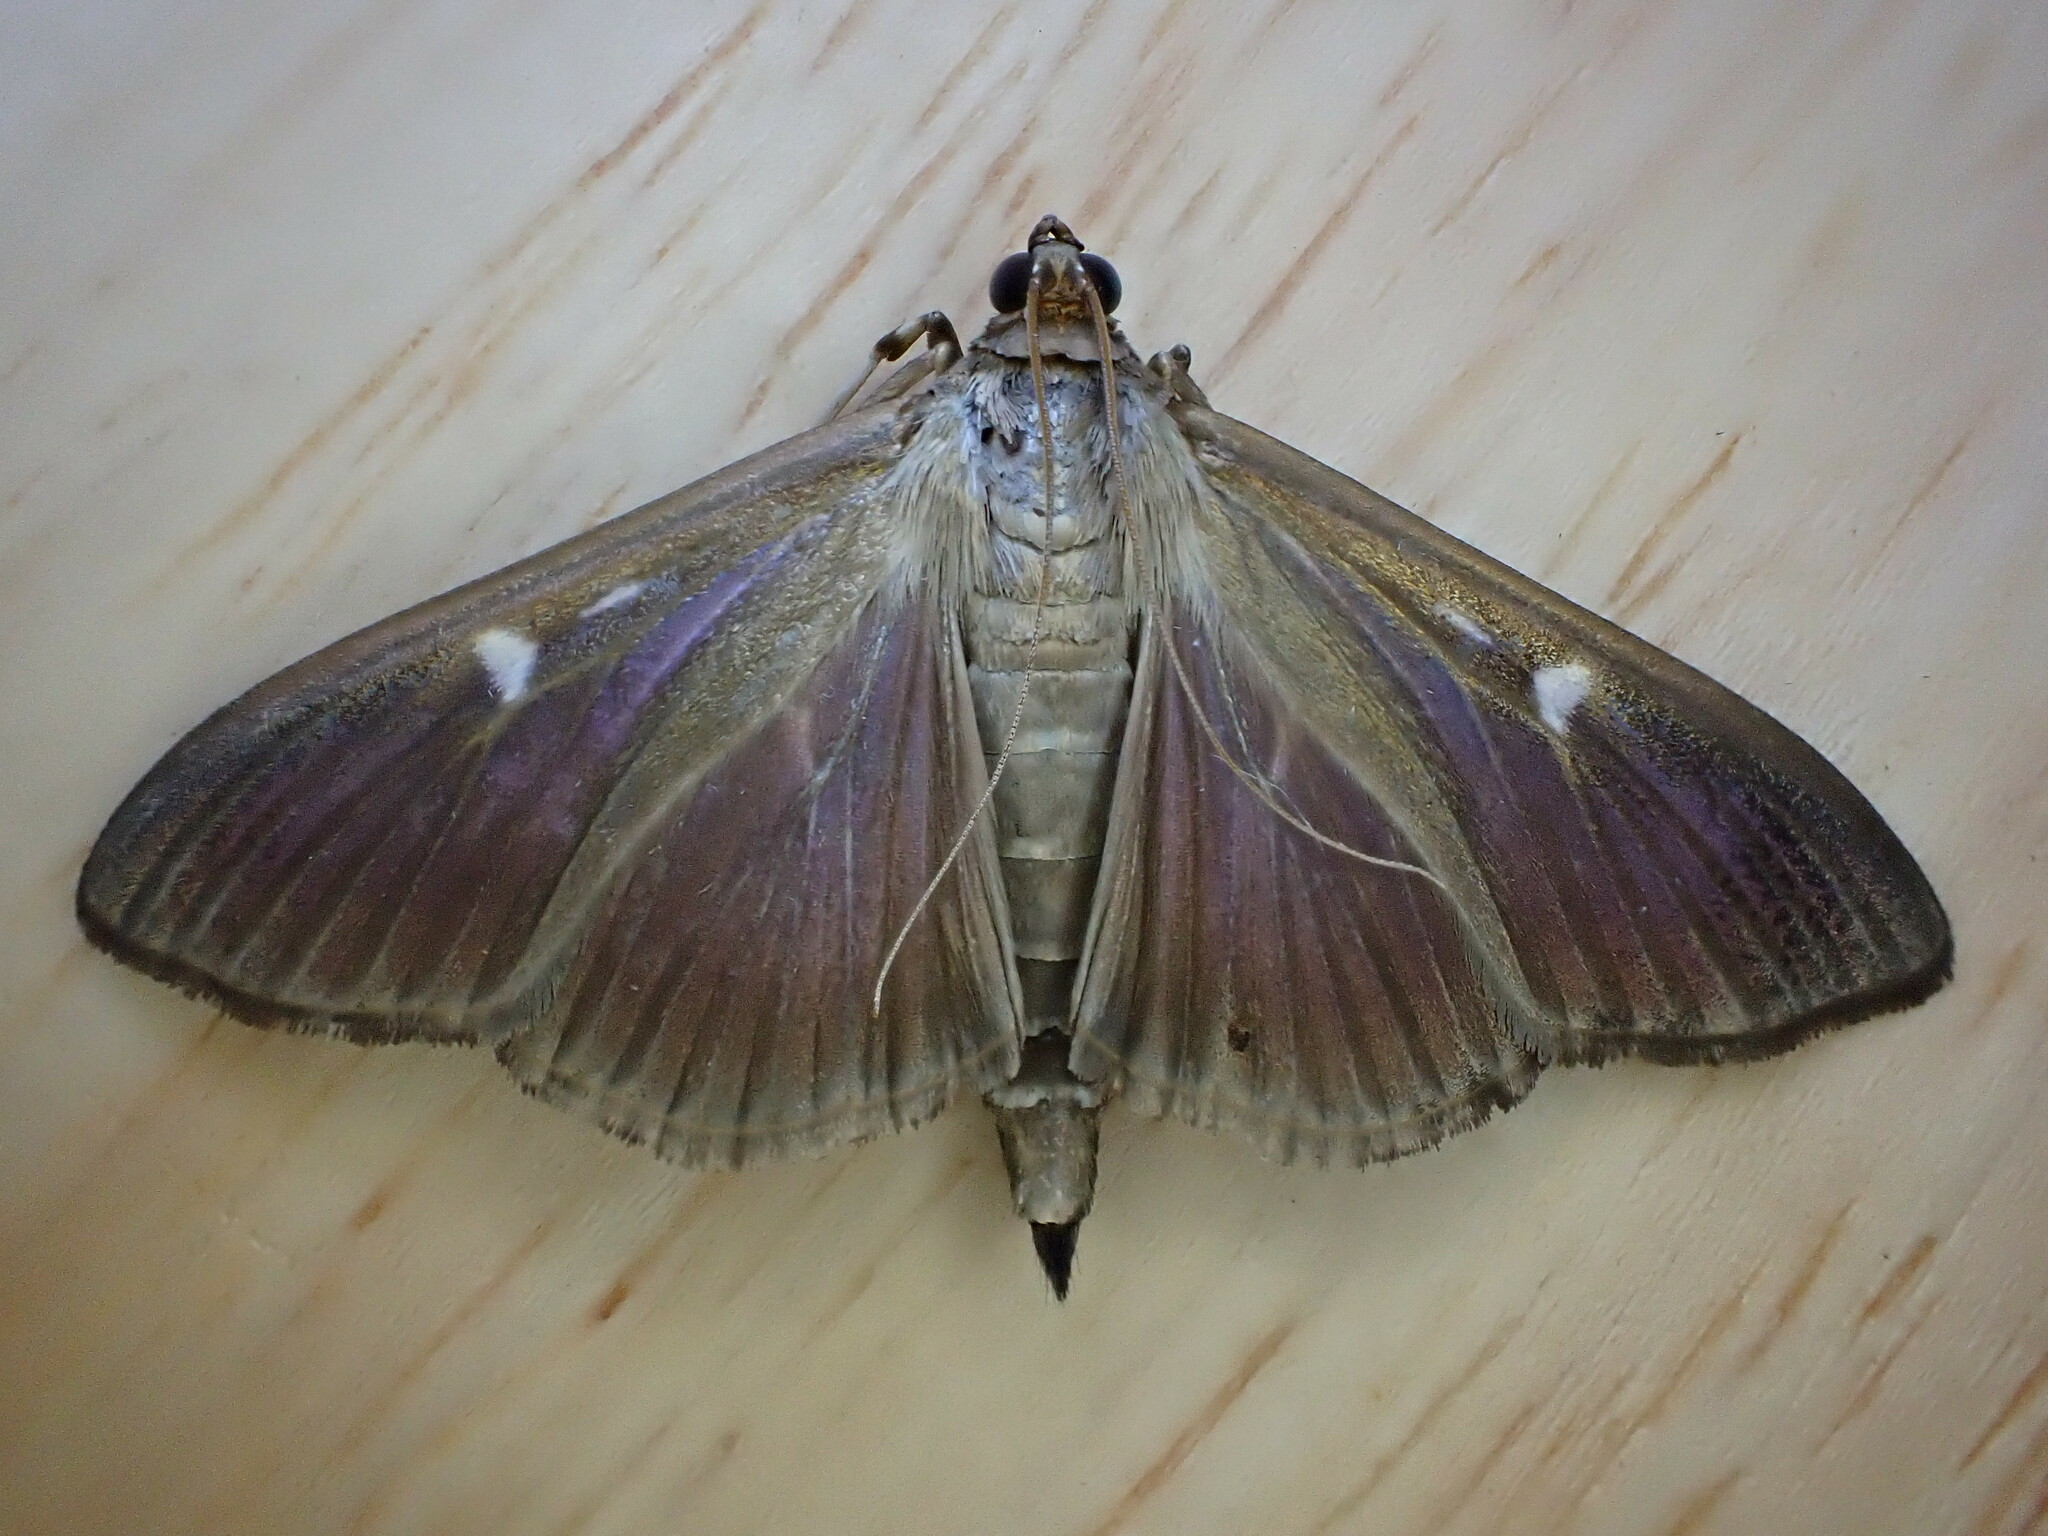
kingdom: Animalia
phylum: Arthropoda
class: Insecta
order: Lepidoptera
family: Crambidae
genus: Cydalima
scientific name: Cydalima perspectalis
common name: Box tree moth
